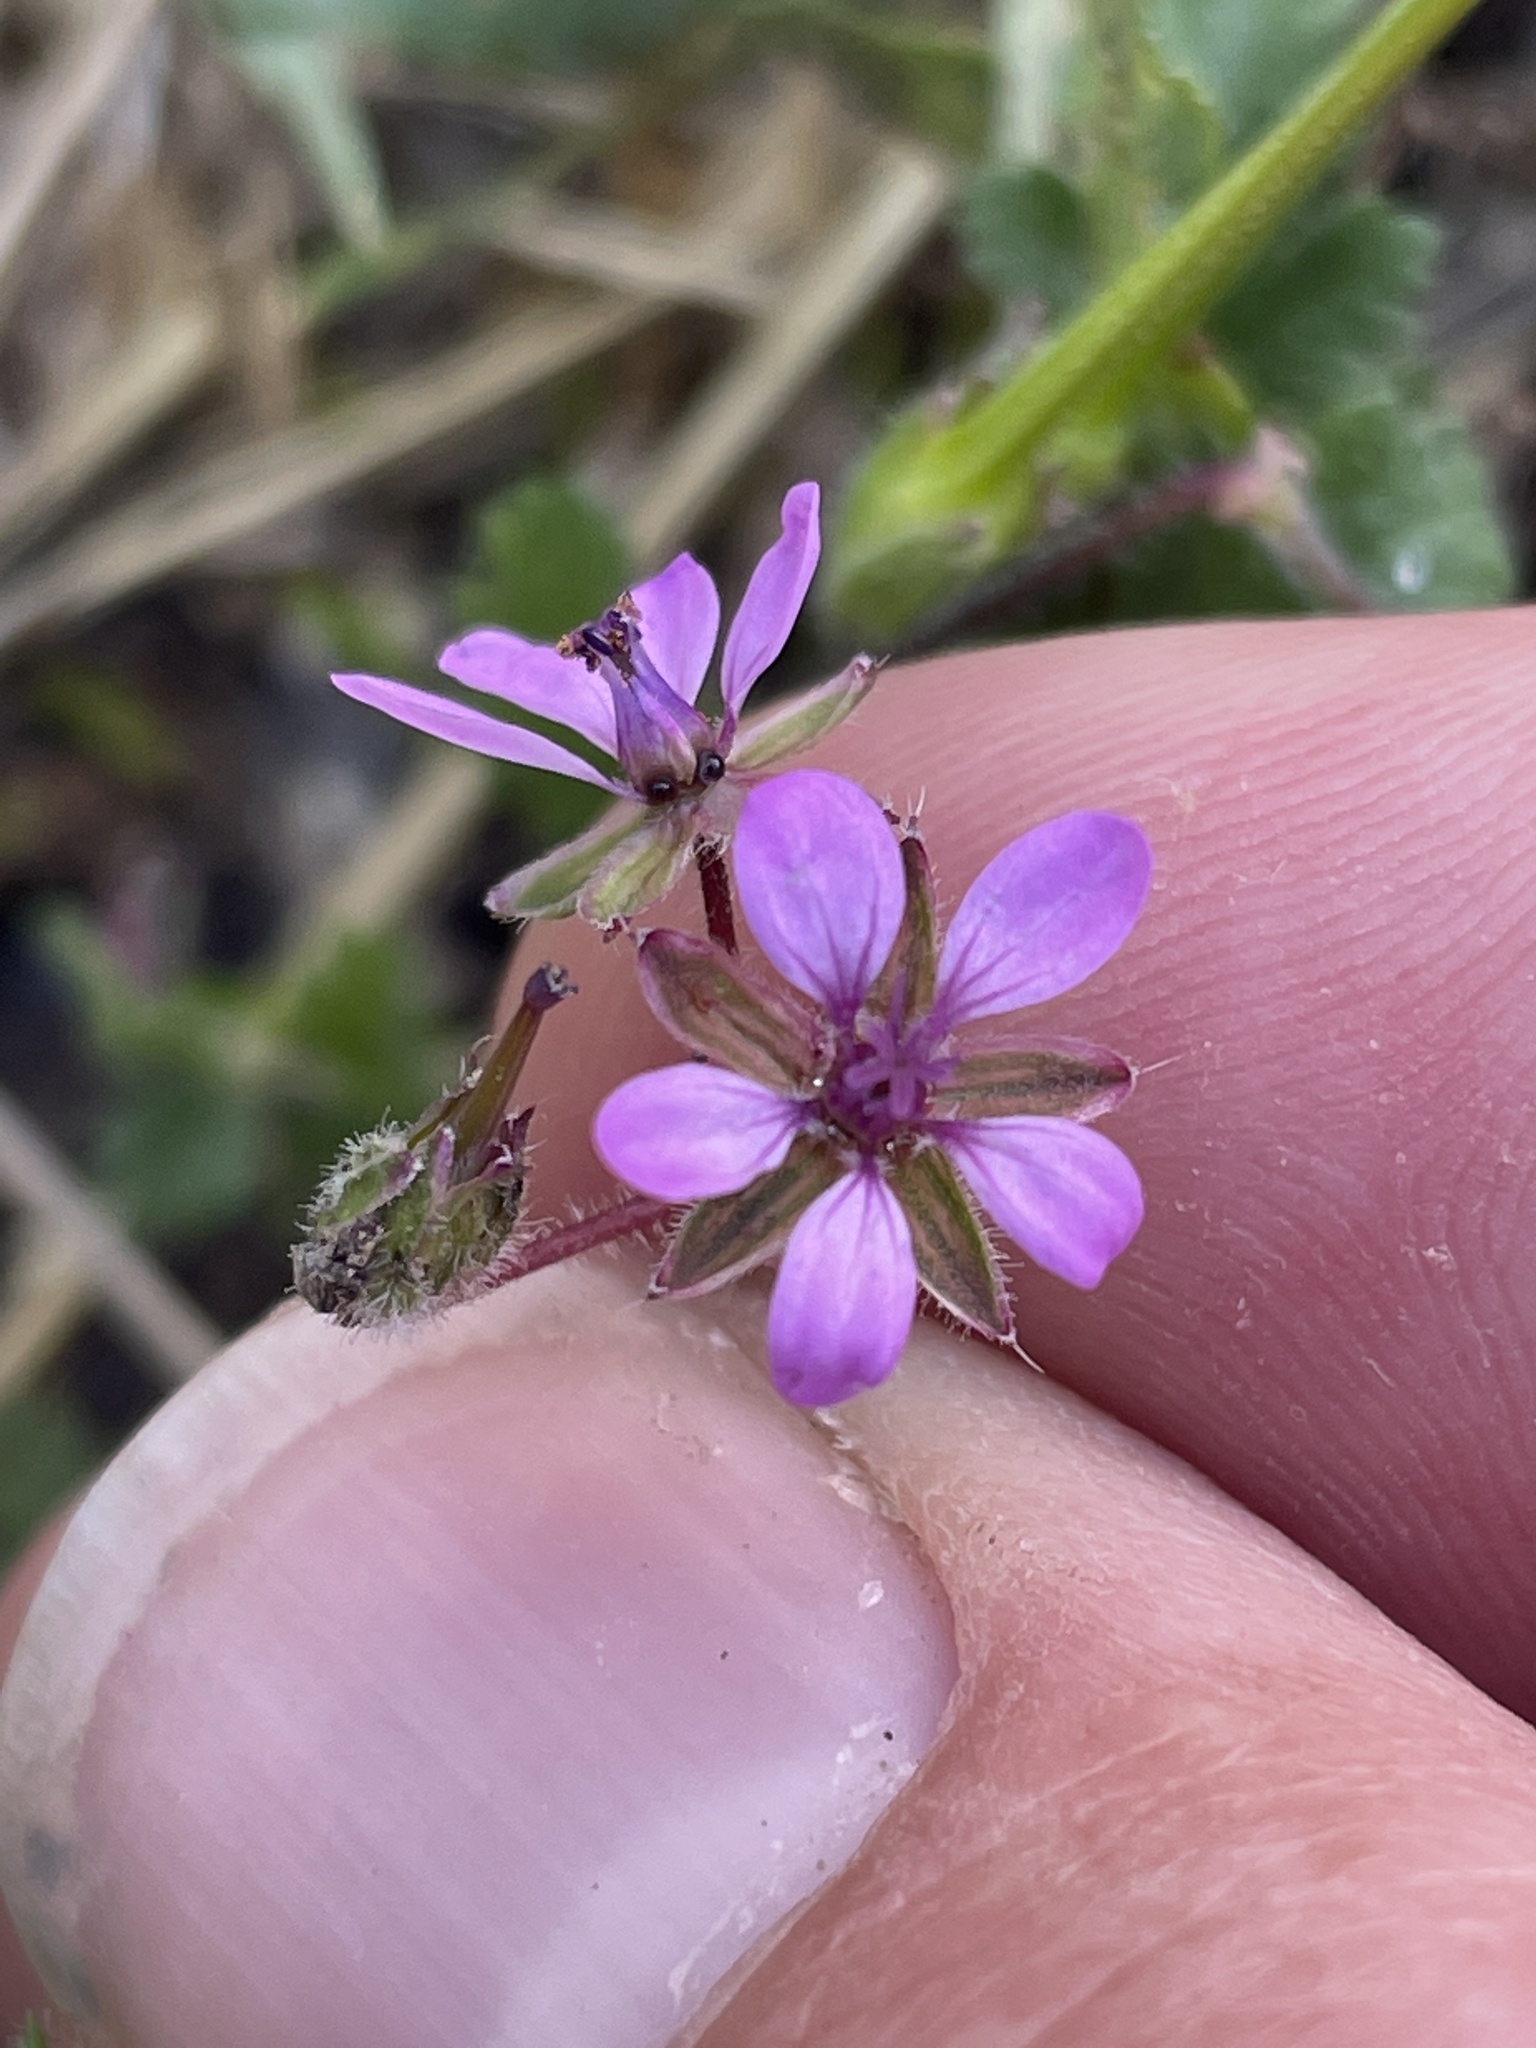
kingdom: Plantae
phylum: Tracheophyta
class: Magnoliopsida
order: Geraniales
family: Geraniaceae
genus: Erodium
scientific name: Erodium cicutarium
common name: Common stork's-bill
